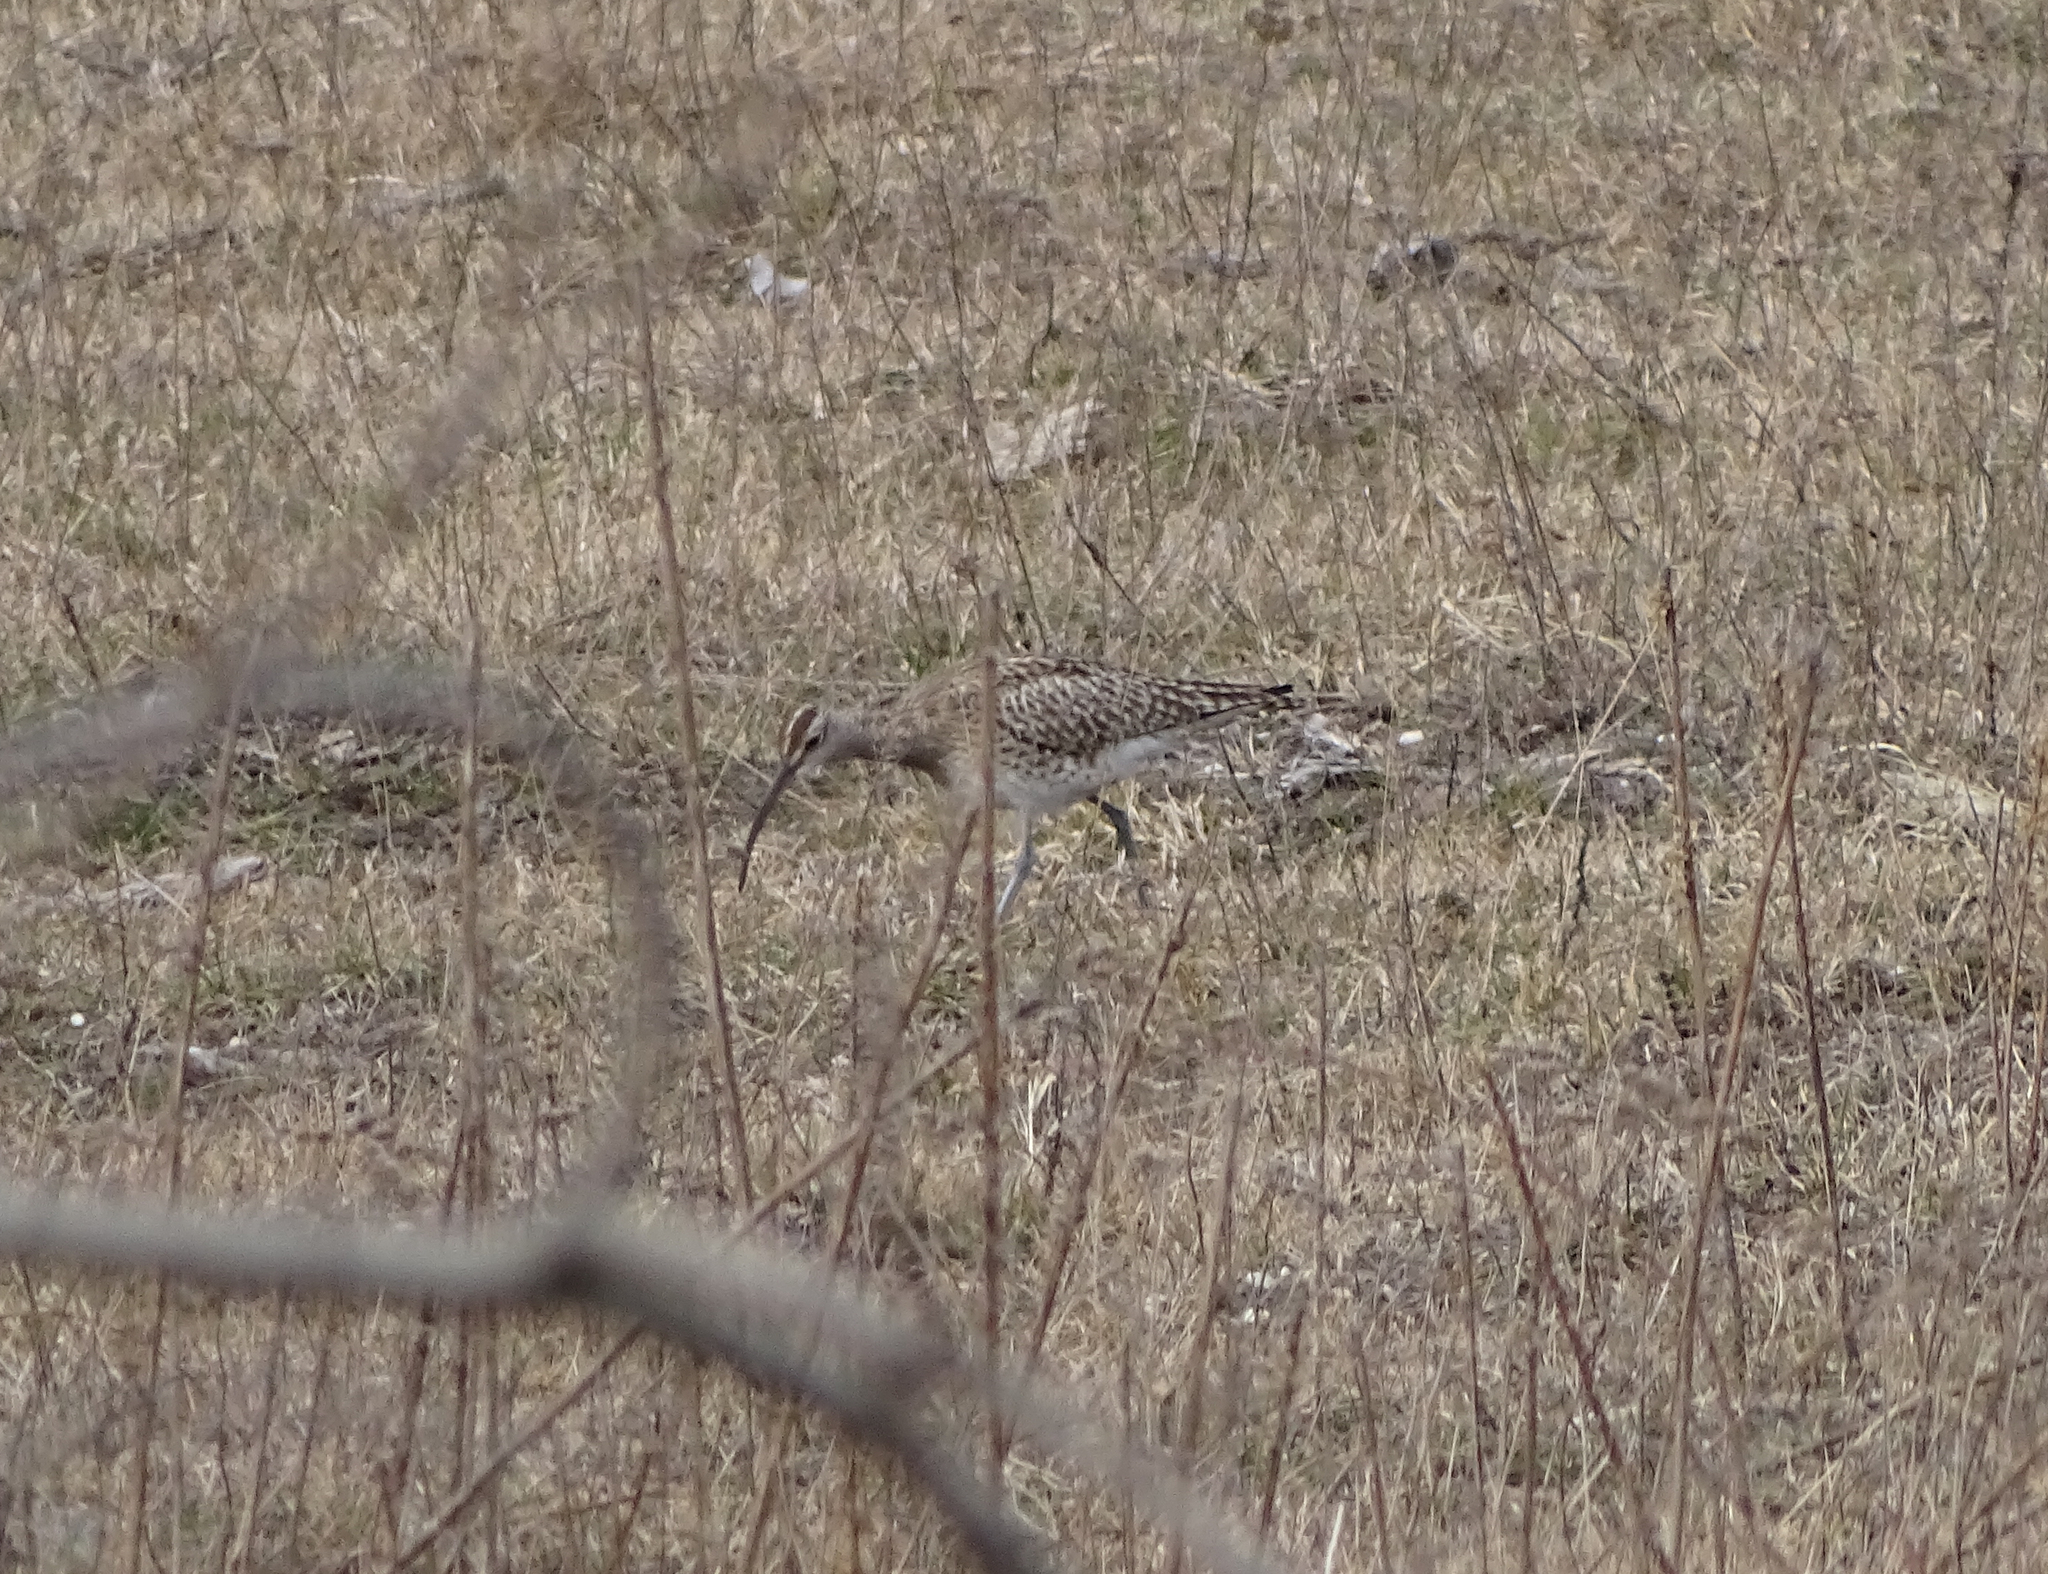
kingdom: Animalia
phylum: Chordata
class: Aves
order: Charadriiformes
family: Scolopacidae
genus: Numenius
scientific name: Numenius phaeopus
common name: Whimbrel
